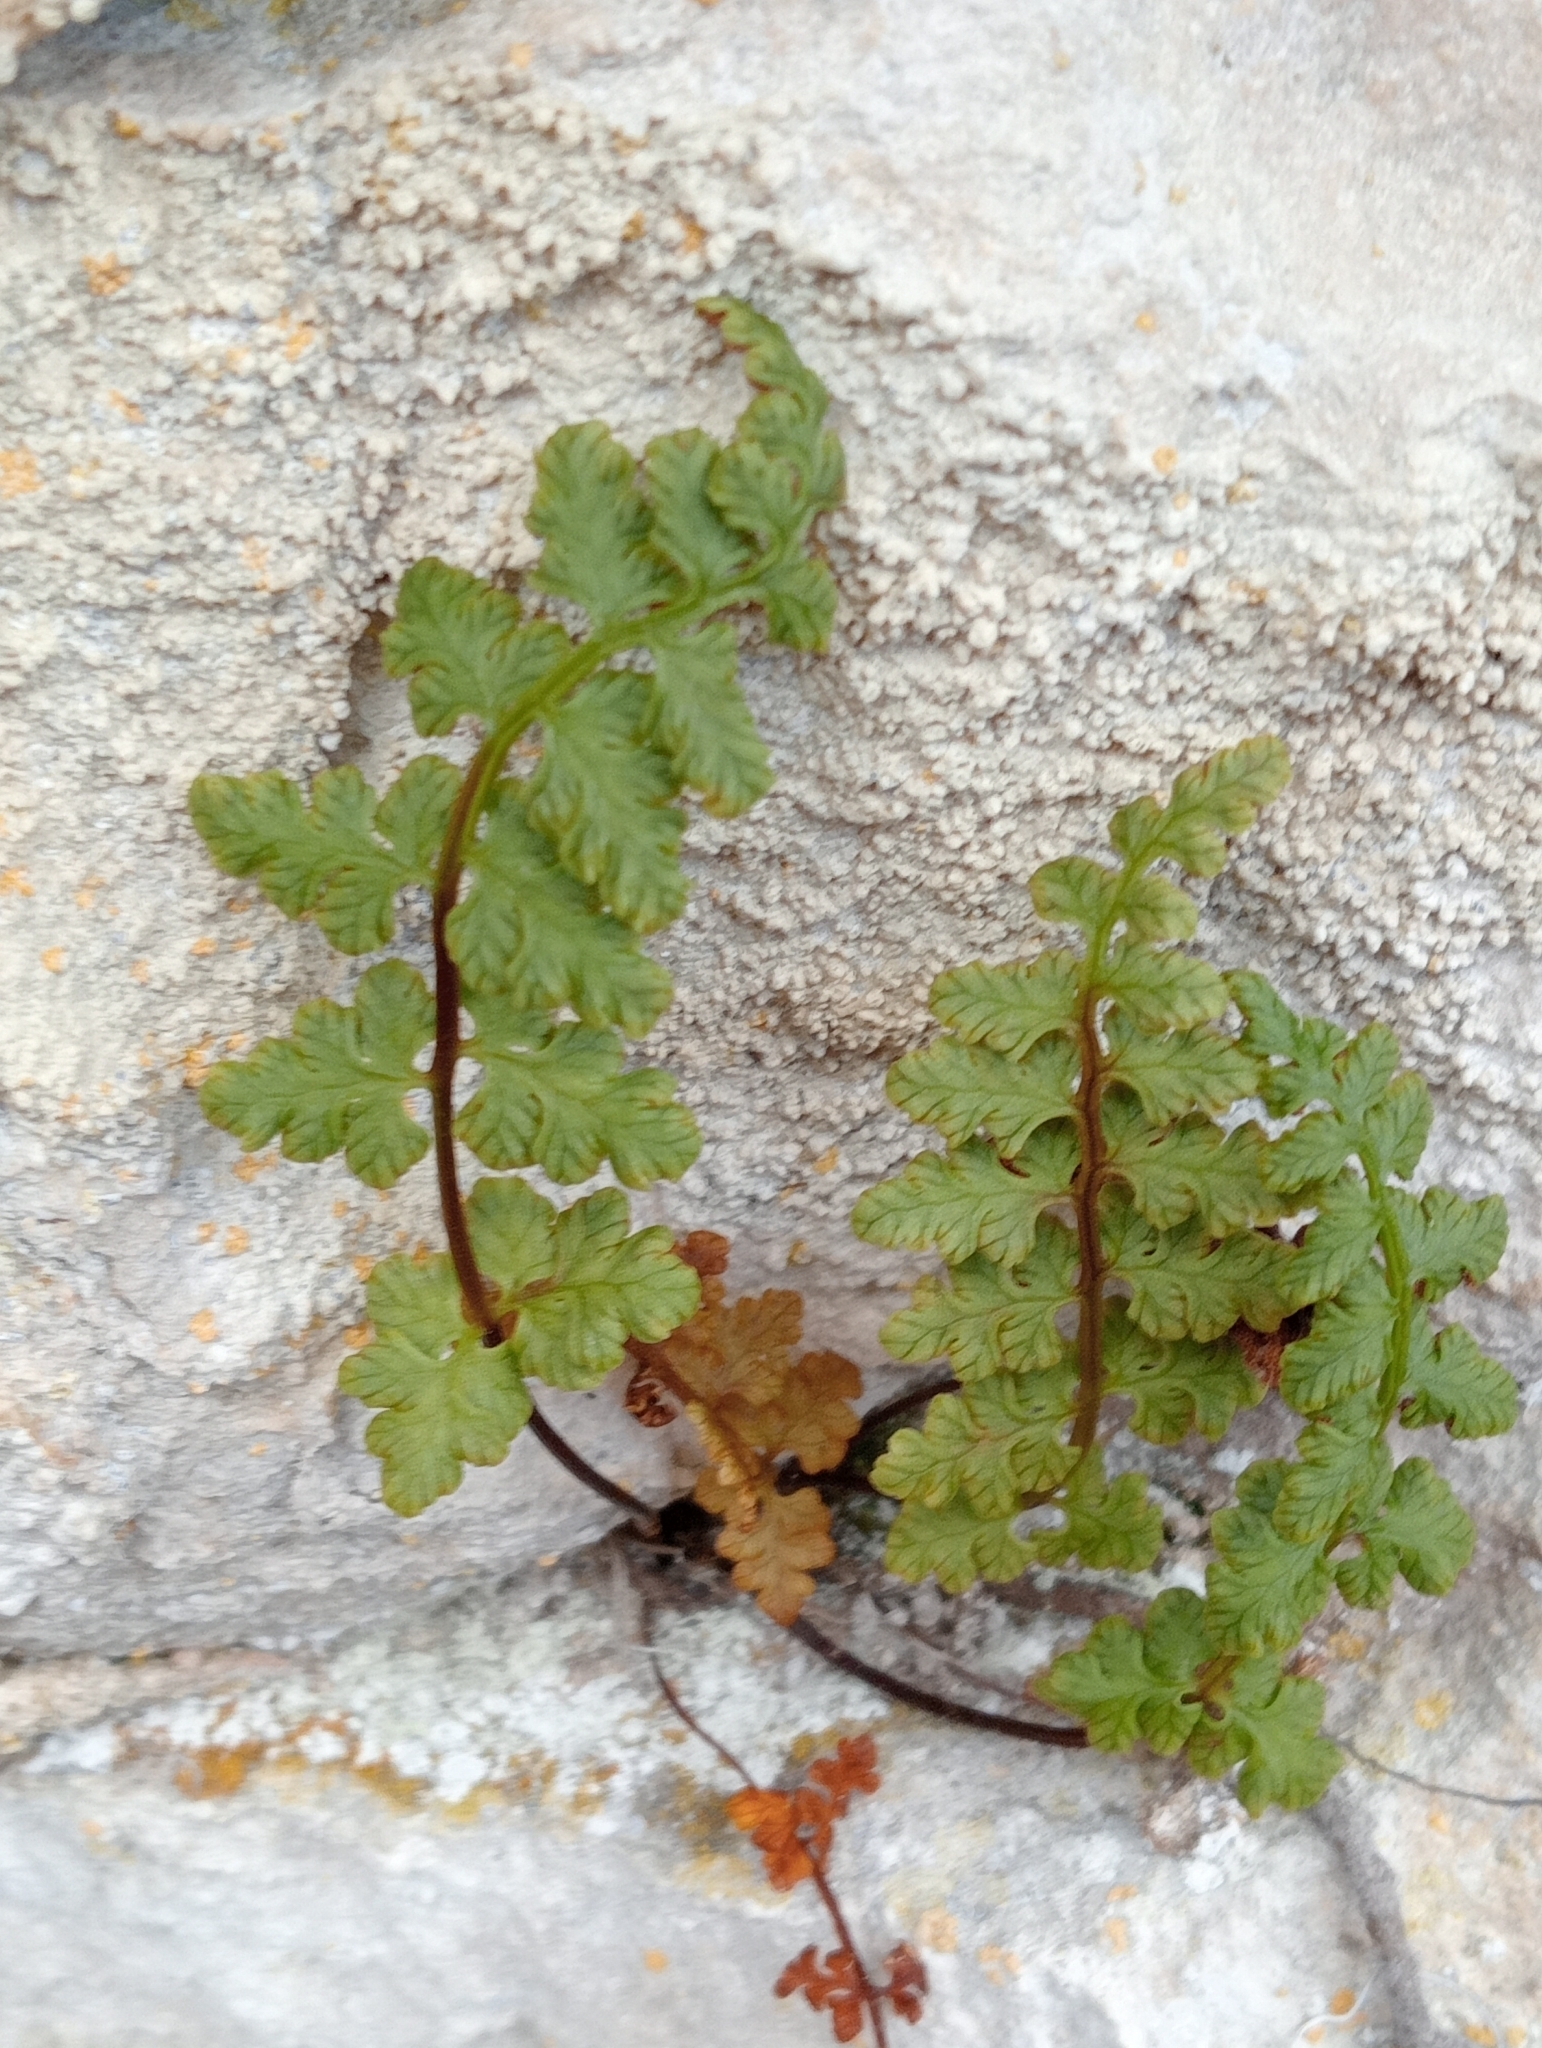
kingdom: Plantae
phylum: Tracheophyta
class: Polypodiopsida
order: Polypodiales
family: Cystopteridaceae
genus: Cystopteris
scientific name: Cystopteris tasmanica
